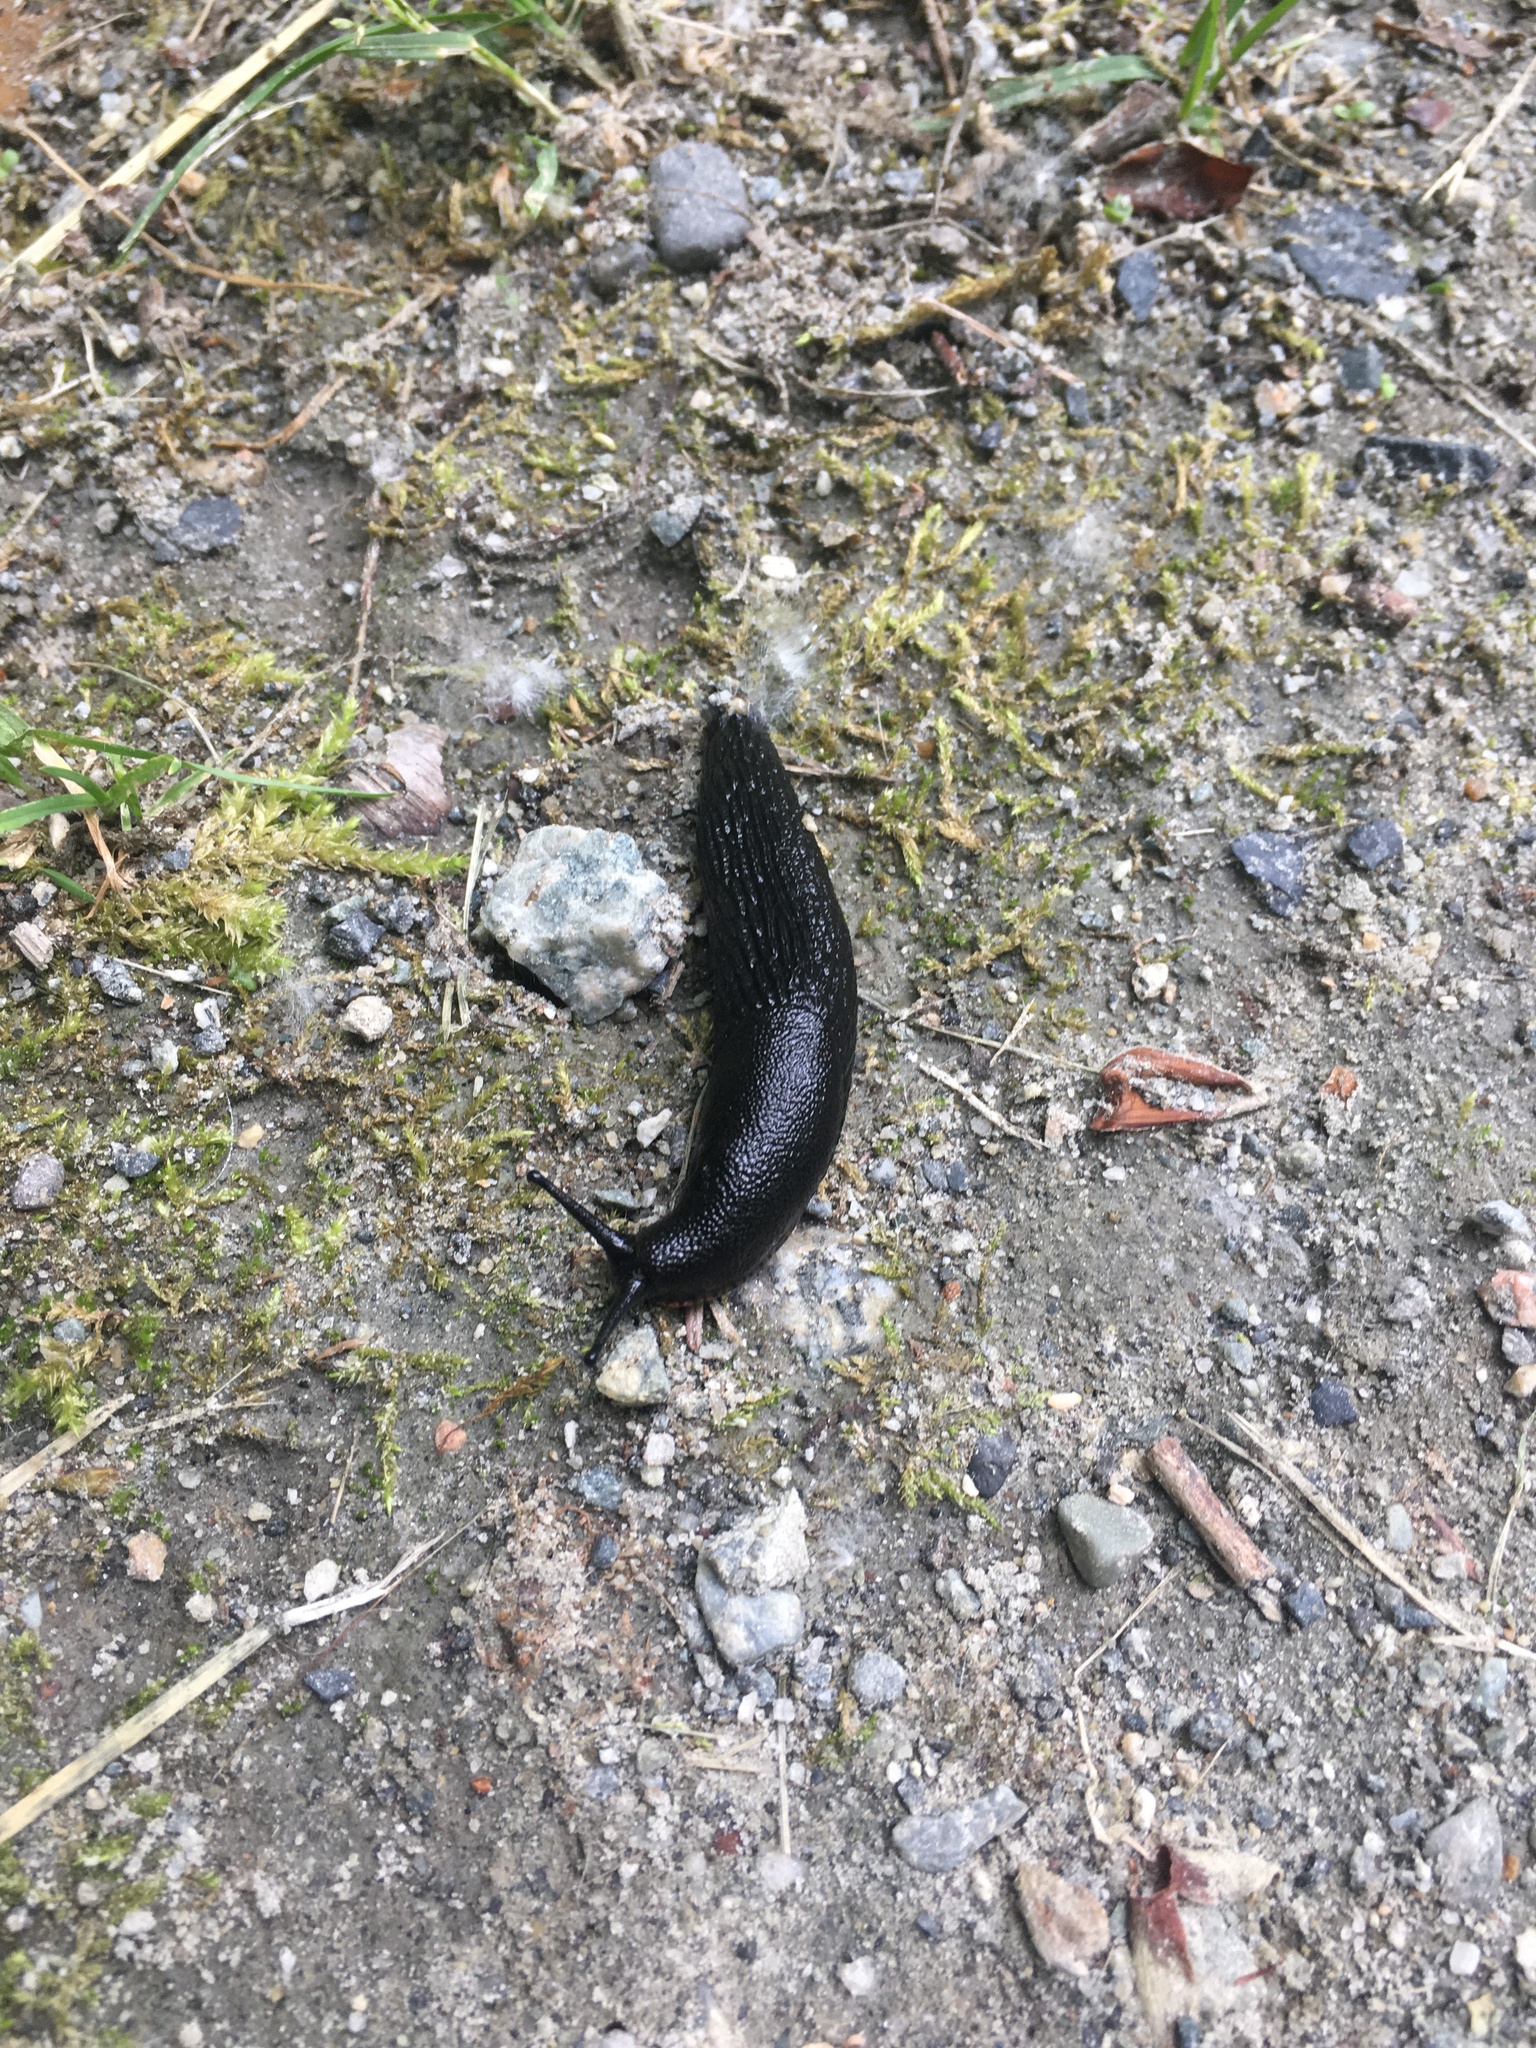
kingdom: Animalia
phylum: Mollusca
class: Gastropoda
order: Stylommatophora
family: Arionidae
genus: Arion
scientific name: Arion rufus
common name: Chocolate arion
